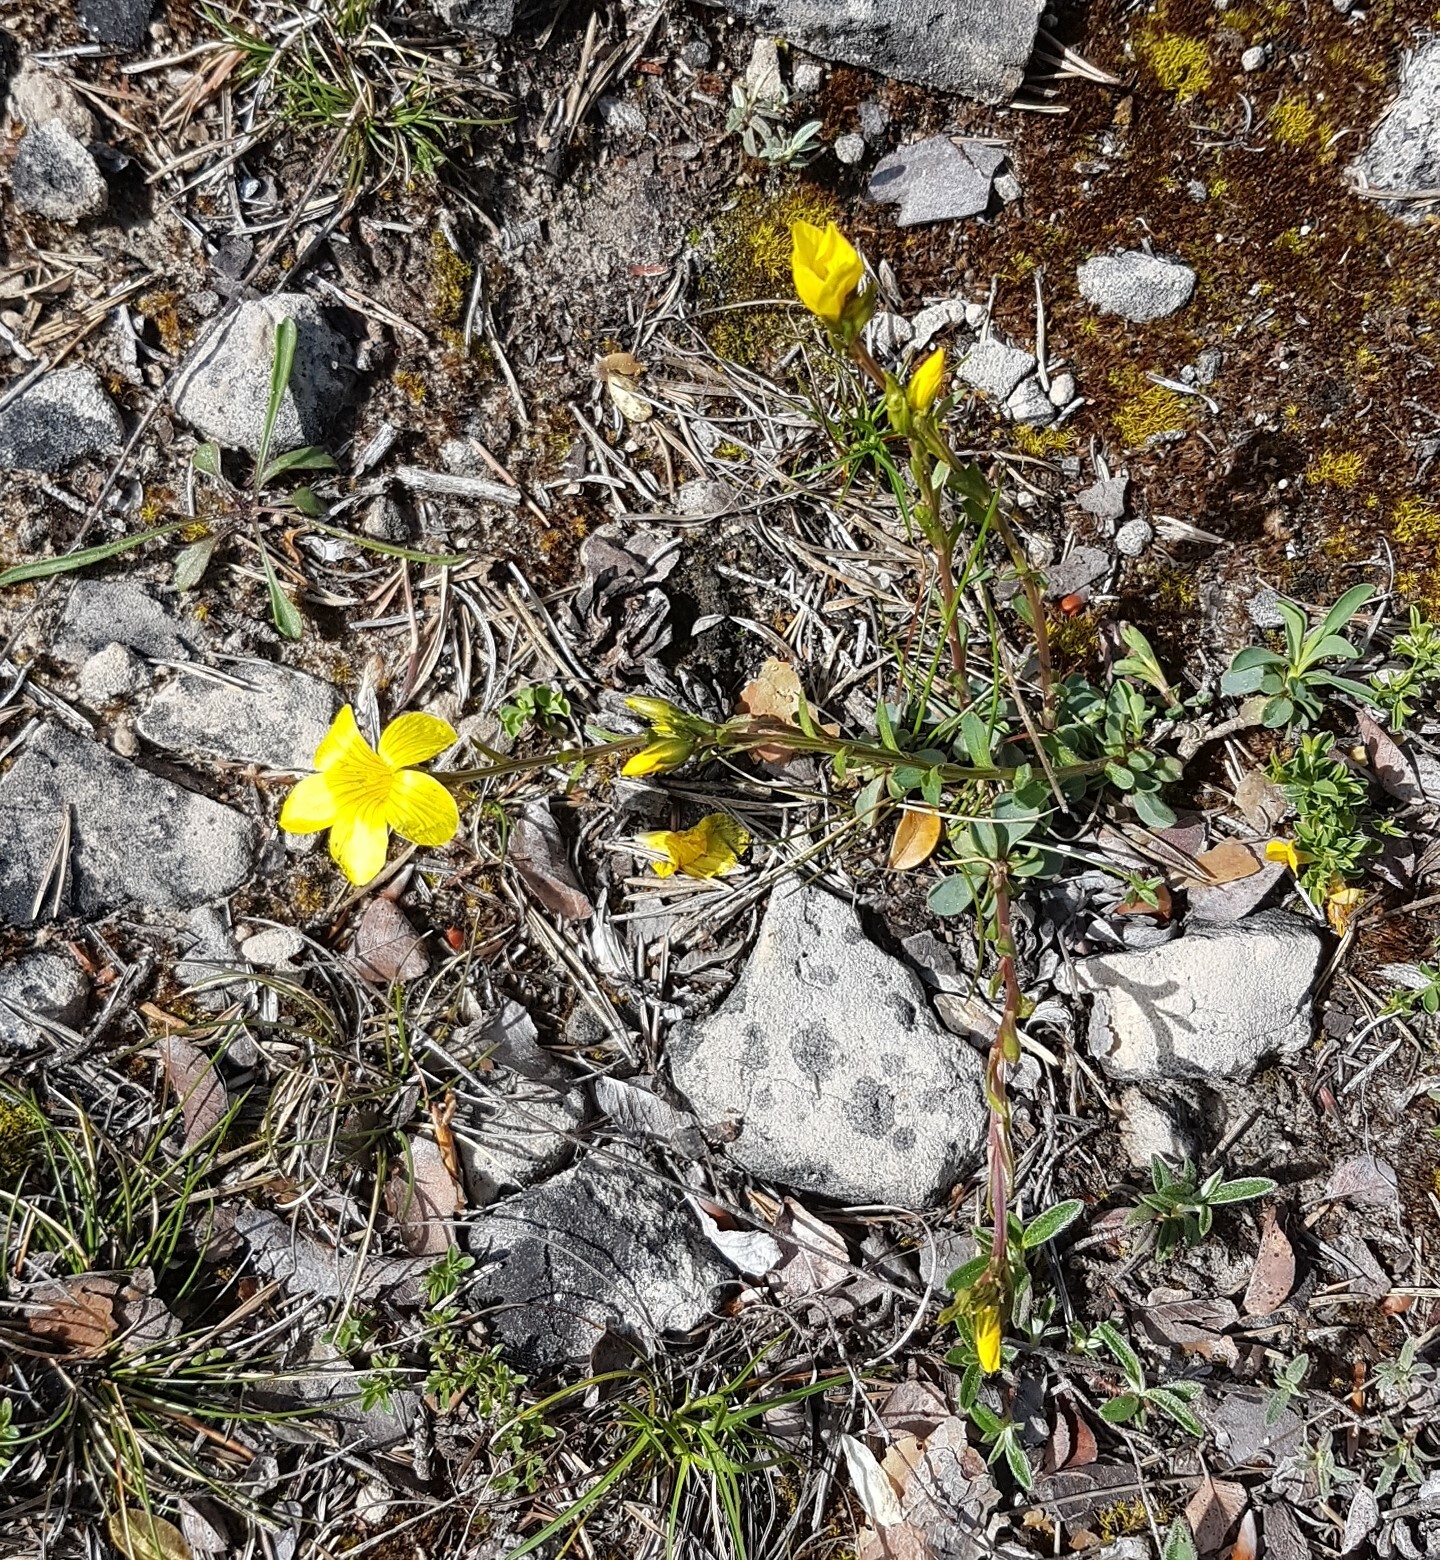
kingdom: Plantae
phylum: Tracheophyta
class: Magnoliopsida
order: Malpighiales
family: Linaceae
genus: Linum
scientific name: Linum campanulatum
